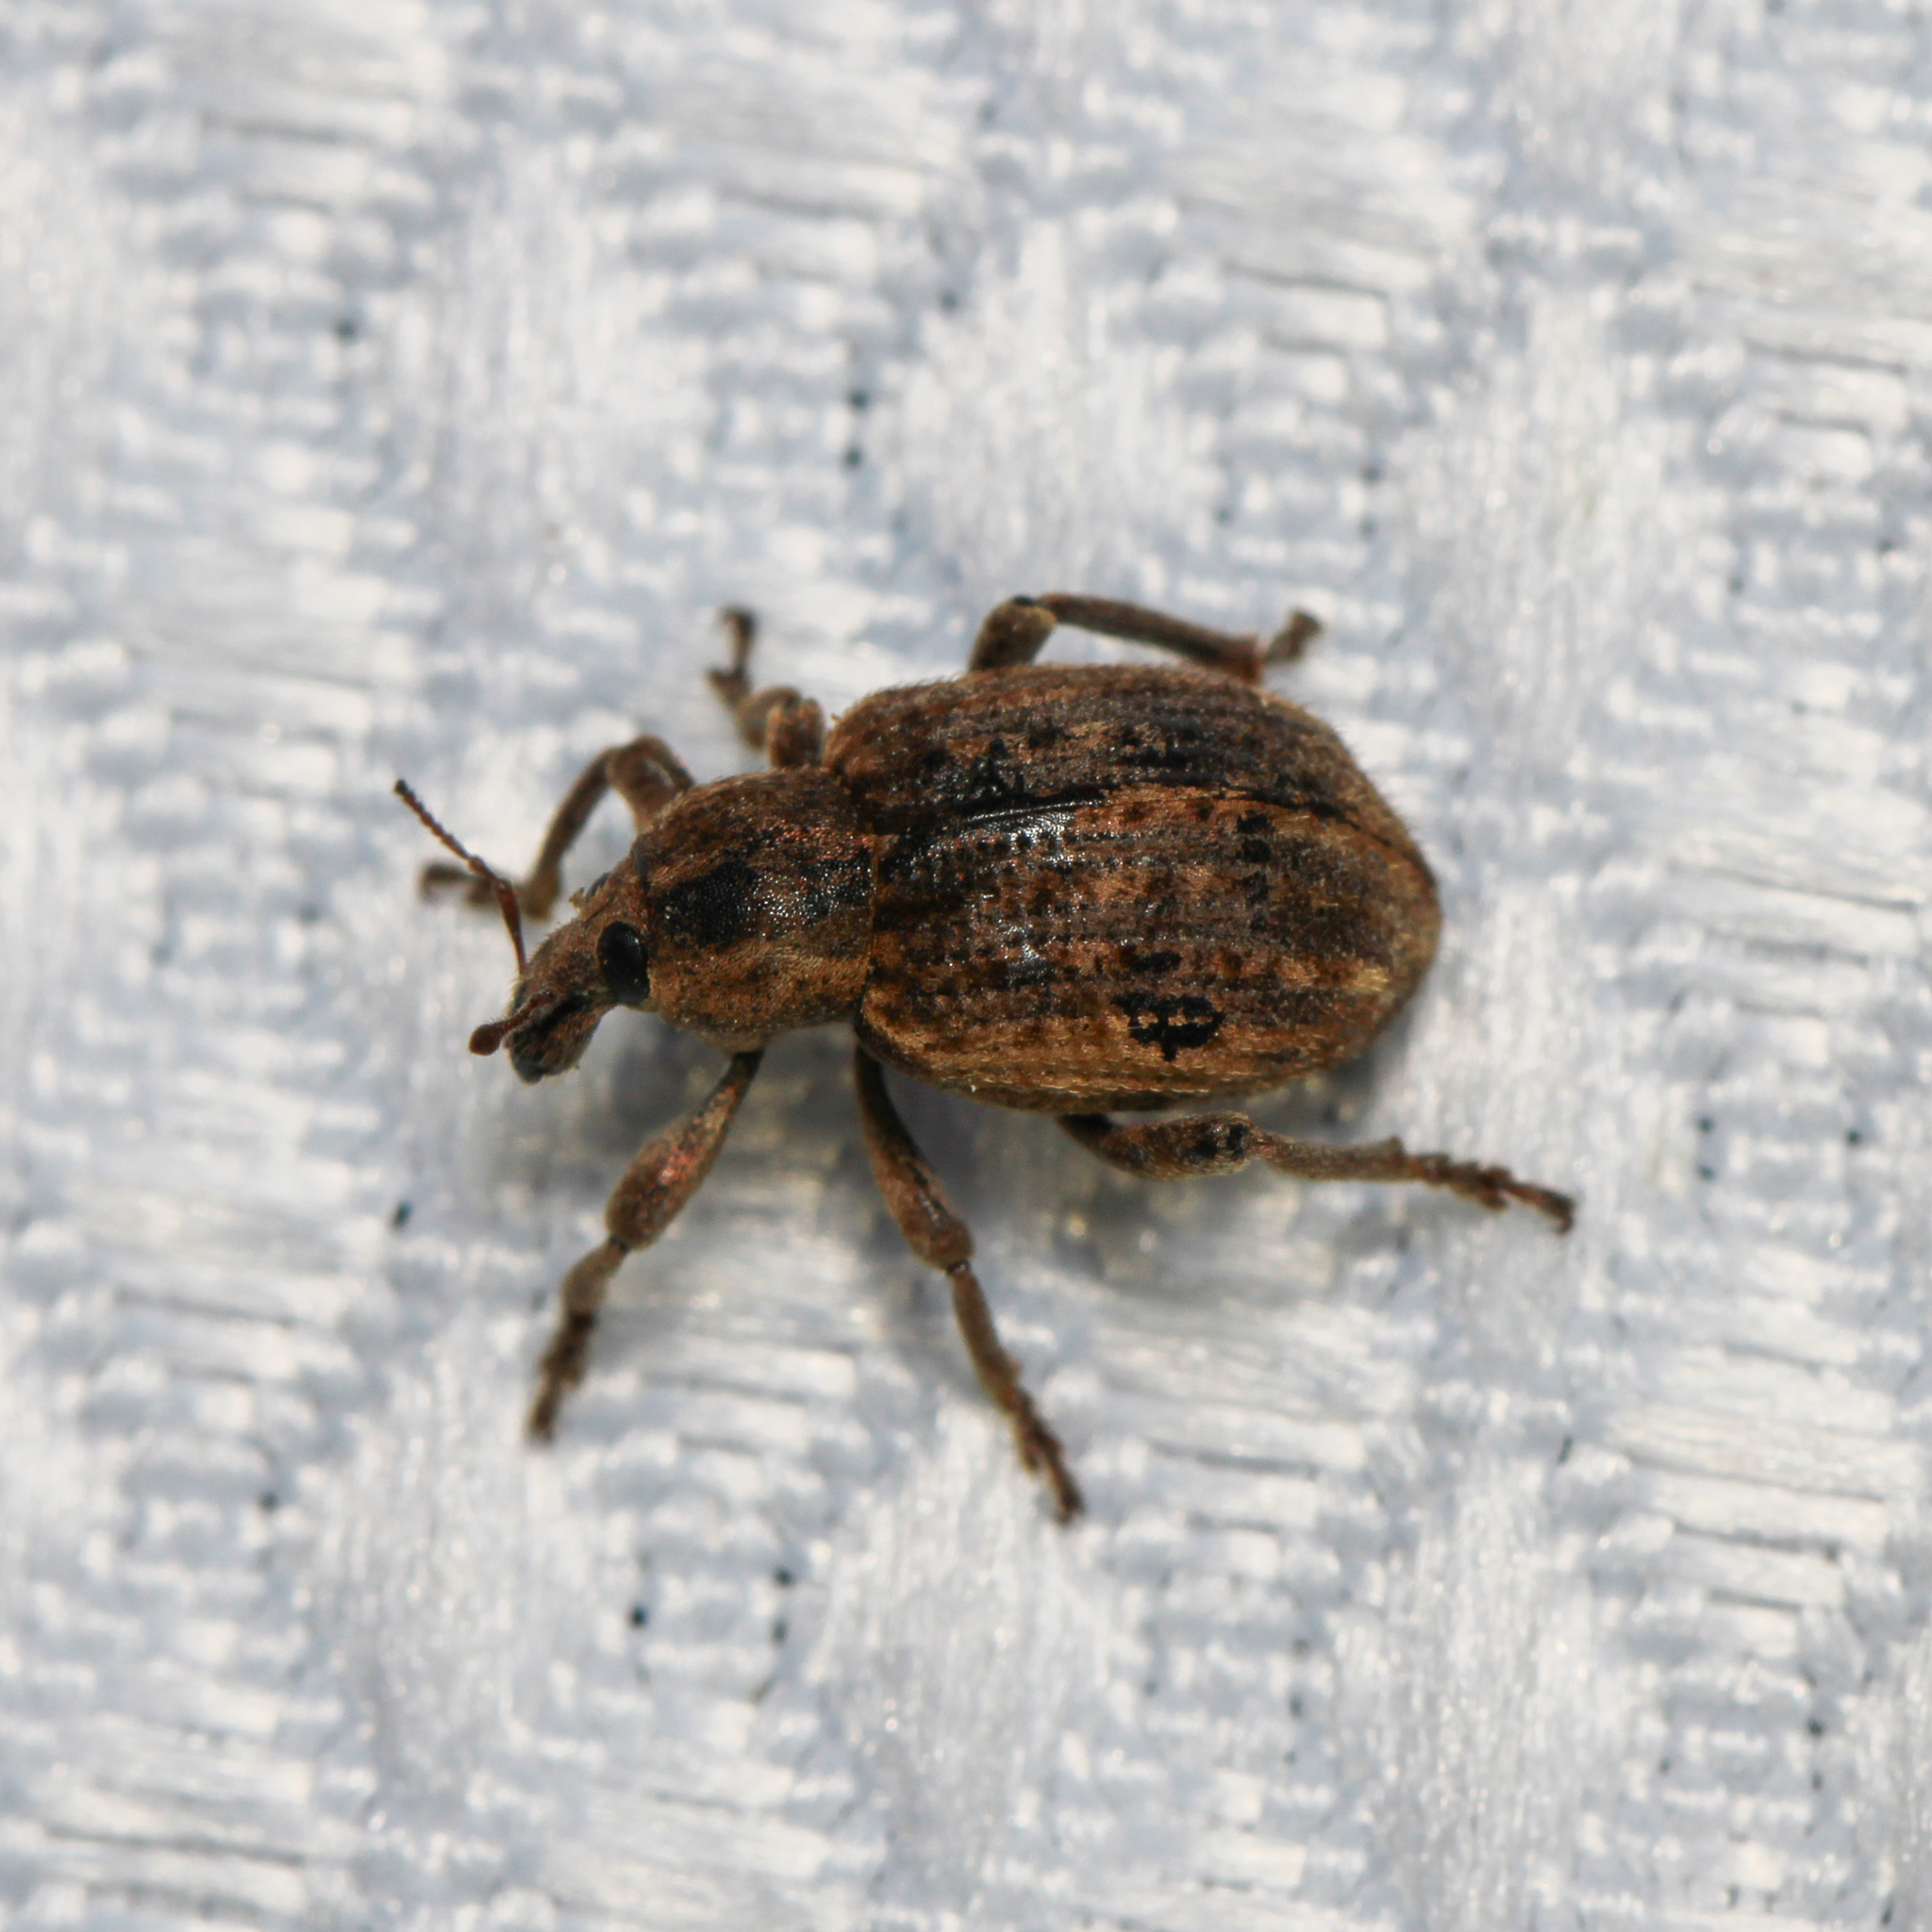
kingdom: Animalia
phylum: Arthropoda
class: Insecta
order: Coleoptera
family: Curculionidae
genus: Brachypera
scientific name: Brachypera zoilus
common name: Clover leaf weevil
